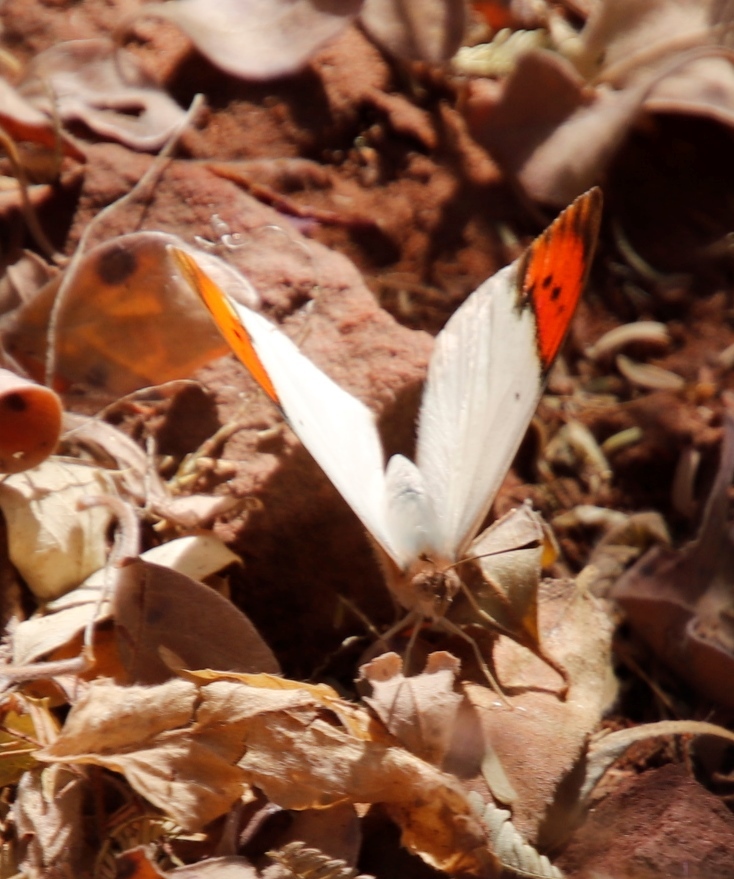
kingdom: Animalia
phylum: Arthropoda
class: Insecta
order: Lepidoptera
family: Pieridae
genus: Colotis
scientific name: Colotis ione
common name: Bushveld purple tip
